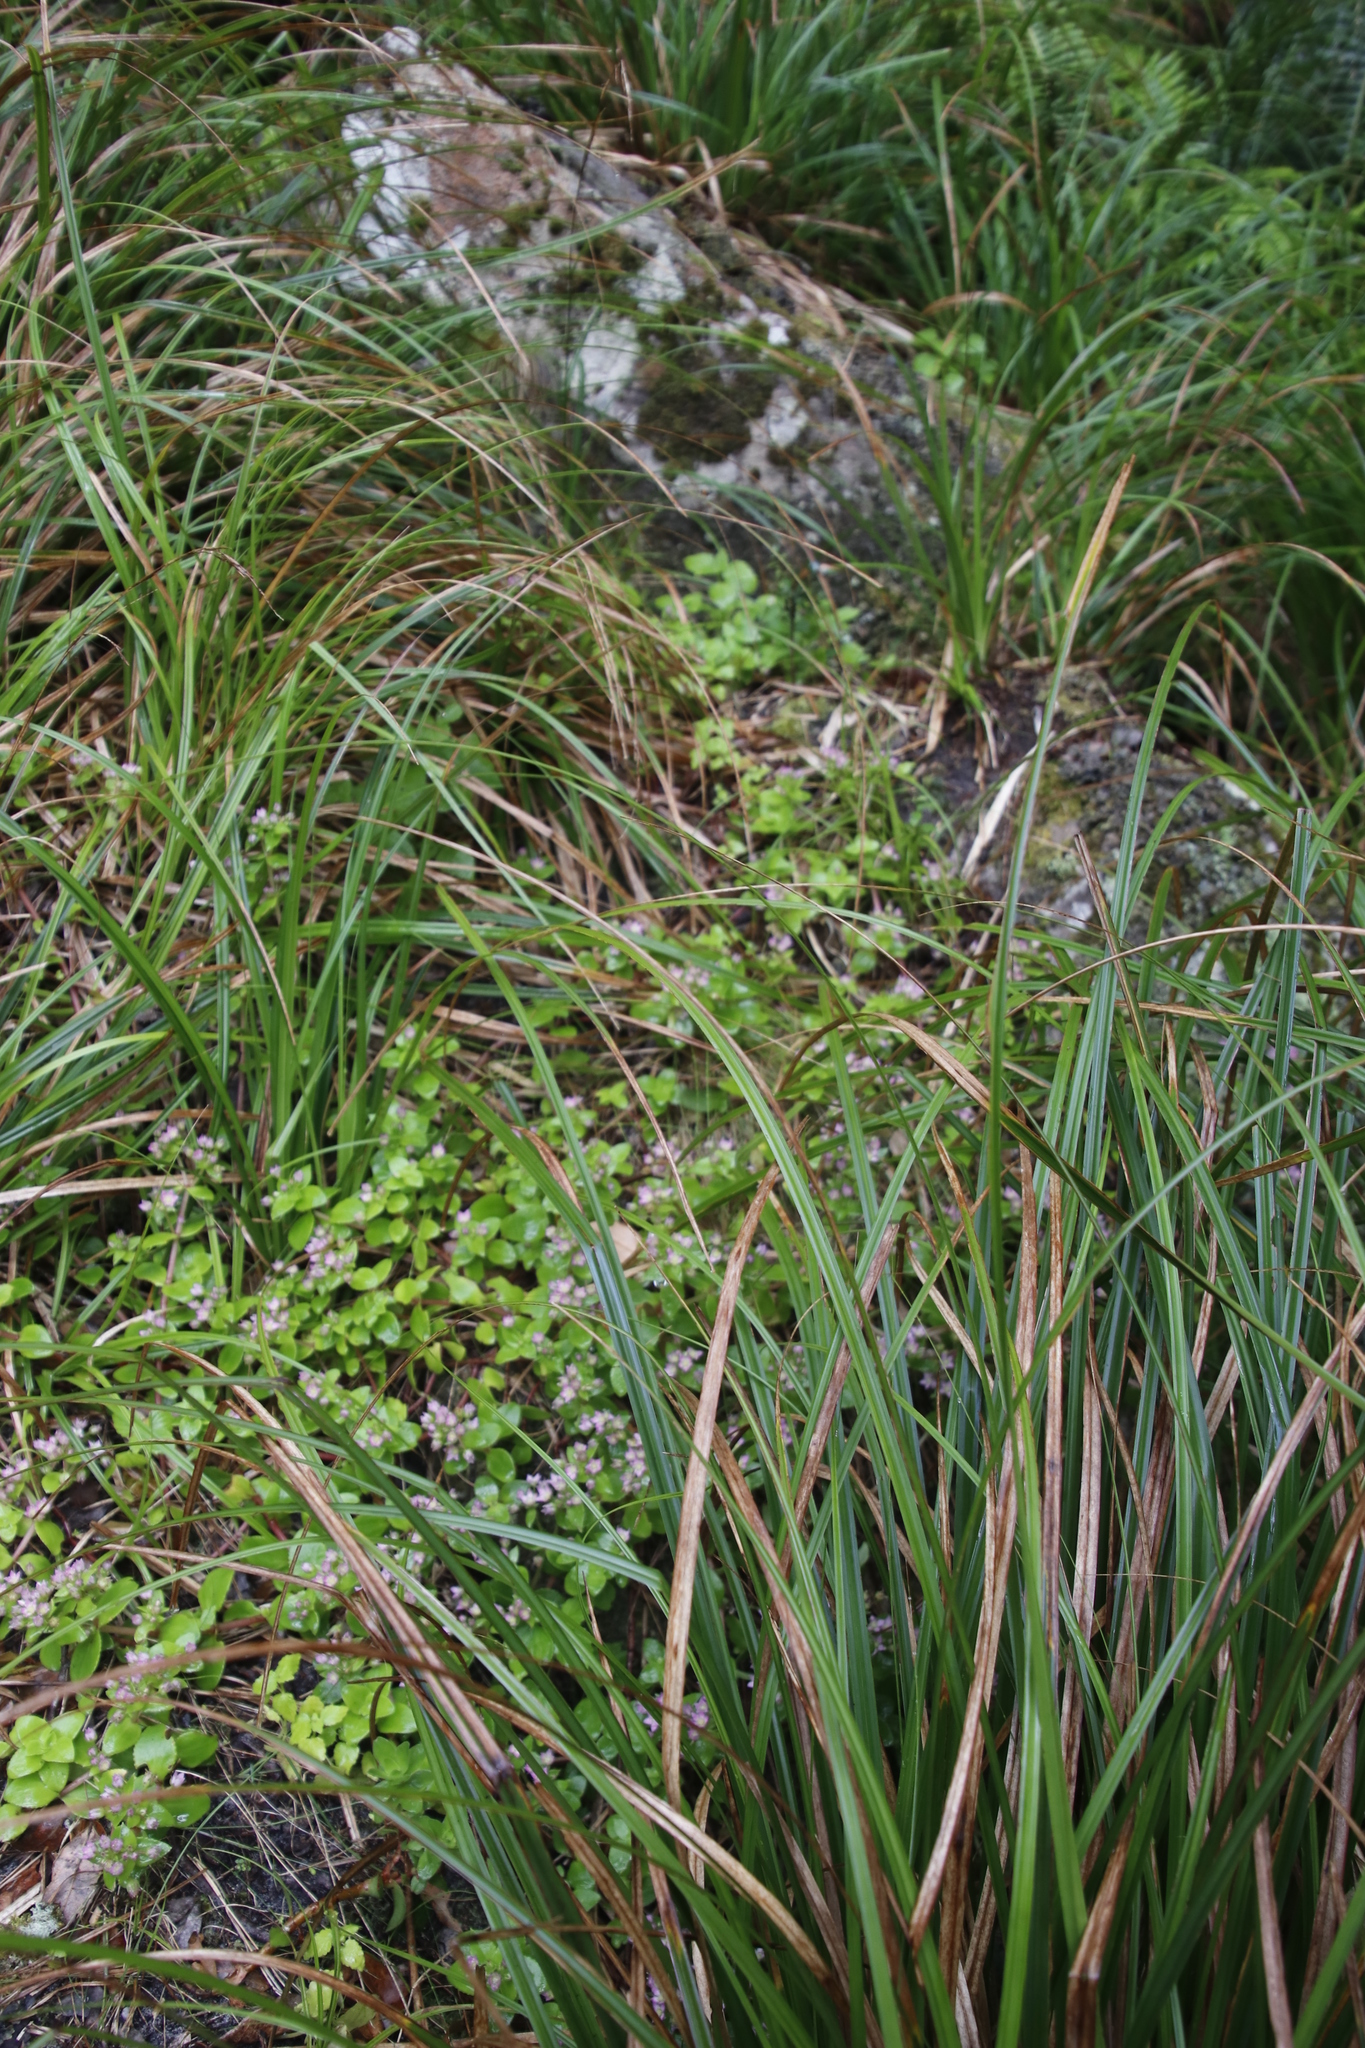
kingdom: Plantae
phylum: Tracheophyta
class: Magnoliopsida
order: Saxifragales
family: Crassulaceae
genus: Crassula
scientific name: Crassula pellucida
